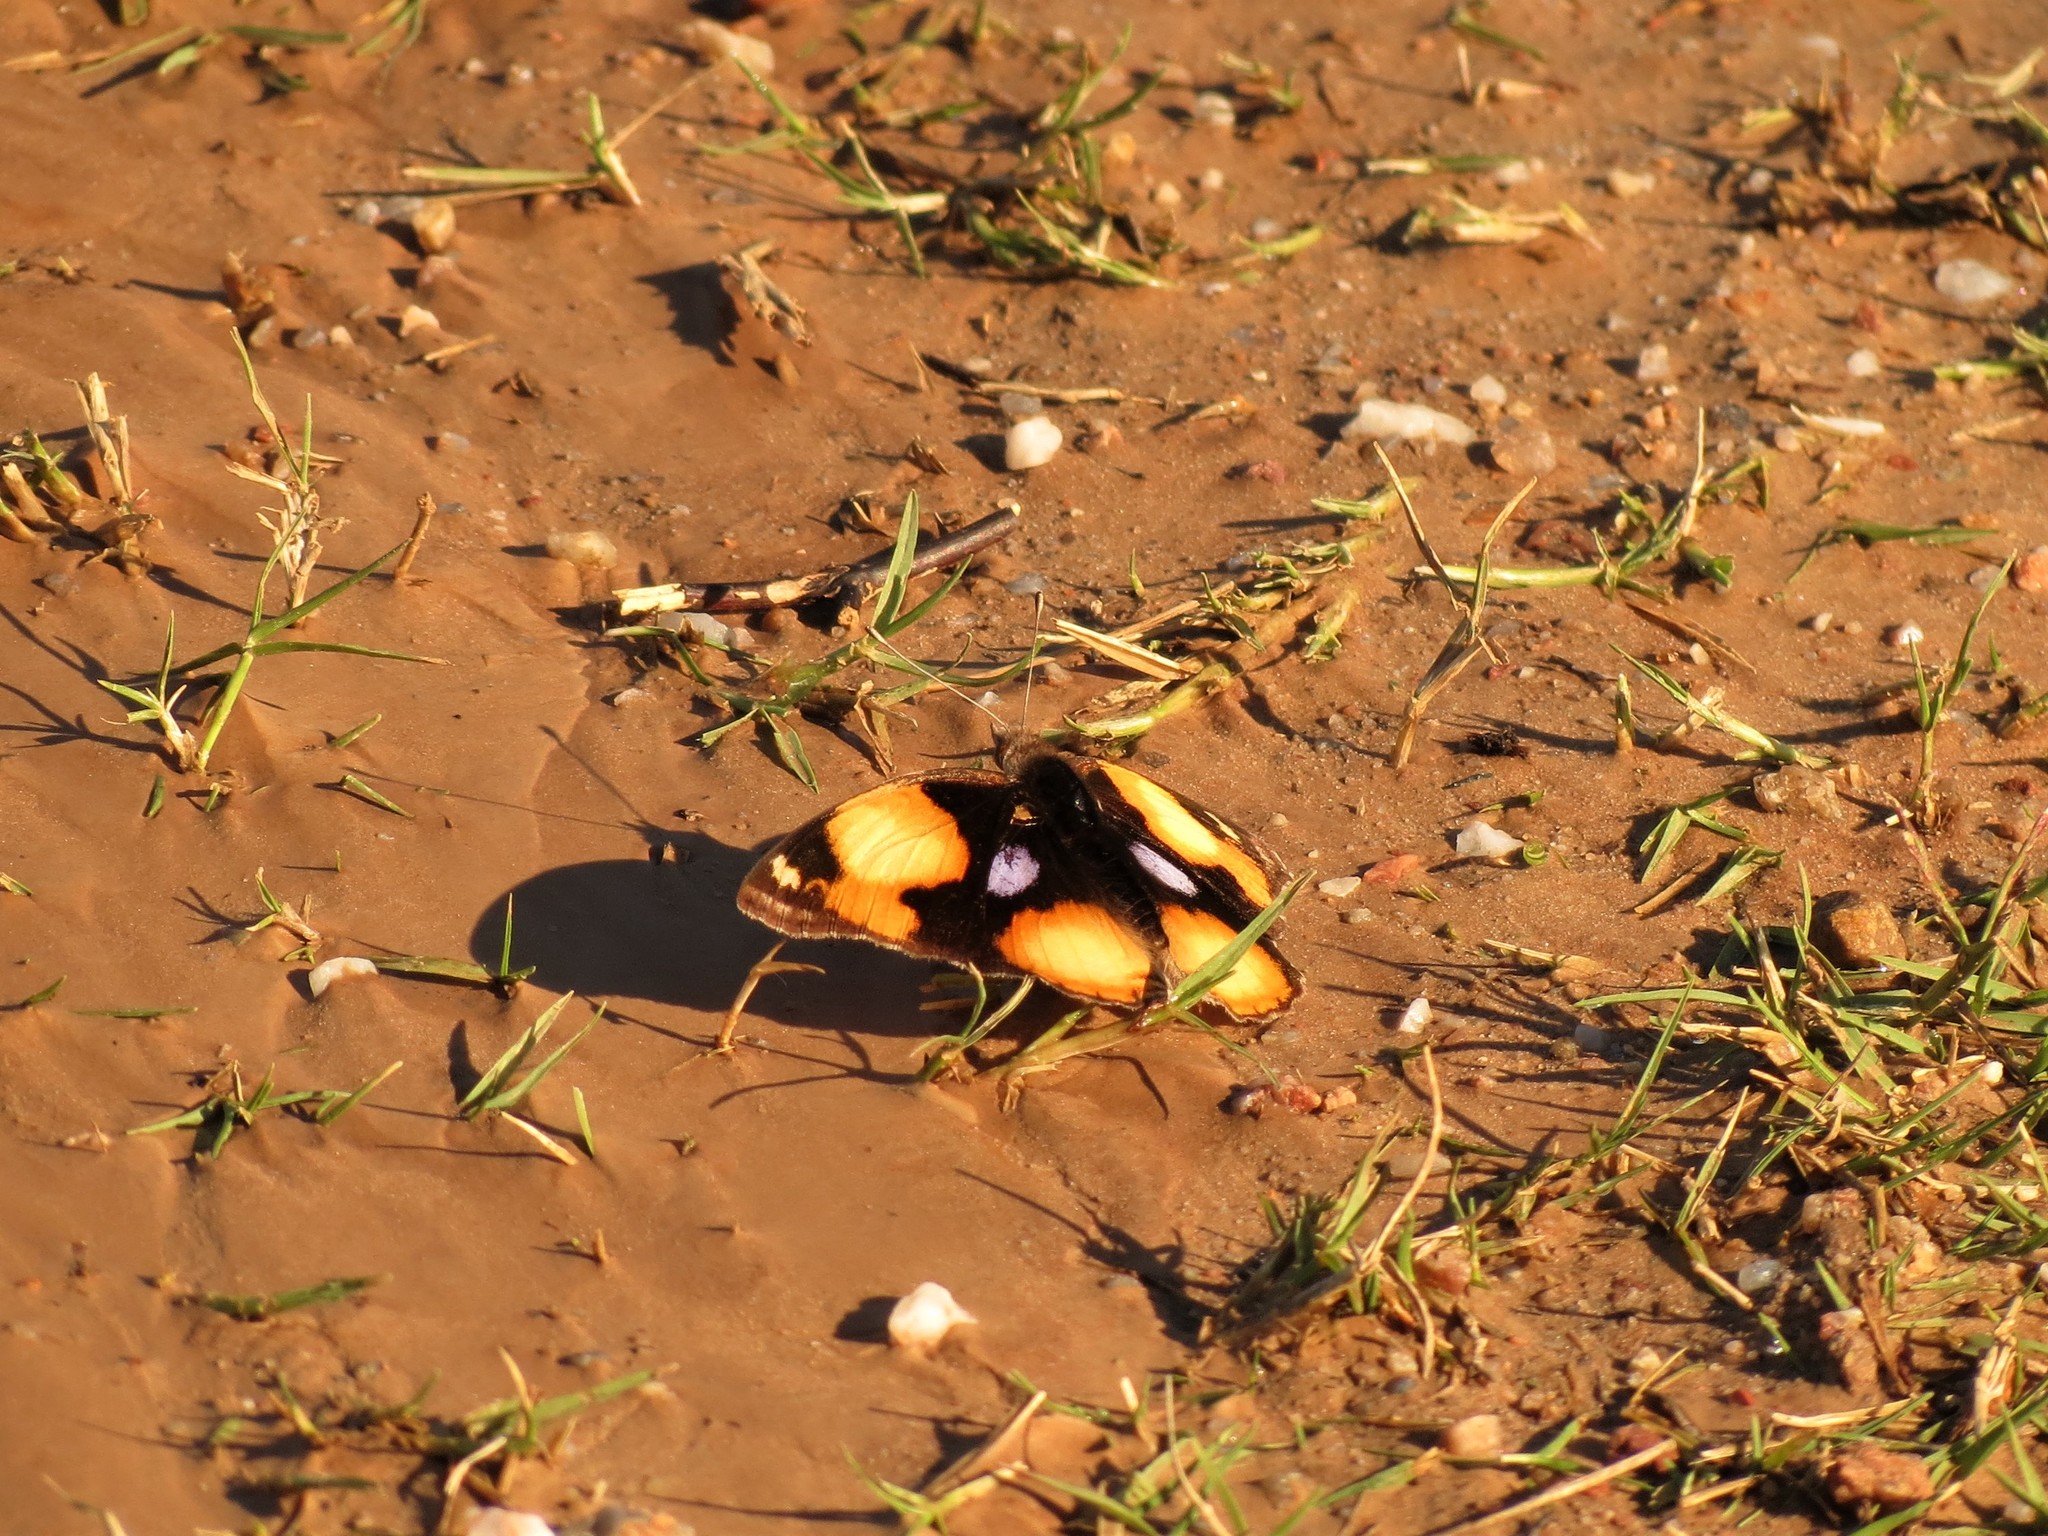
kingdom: Animalia
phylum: Arthropoda
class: Insecta
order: Lepidoptera
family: Nymphalidae
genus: Junonia
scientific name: Junonia hierta
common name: Yellow pansy
